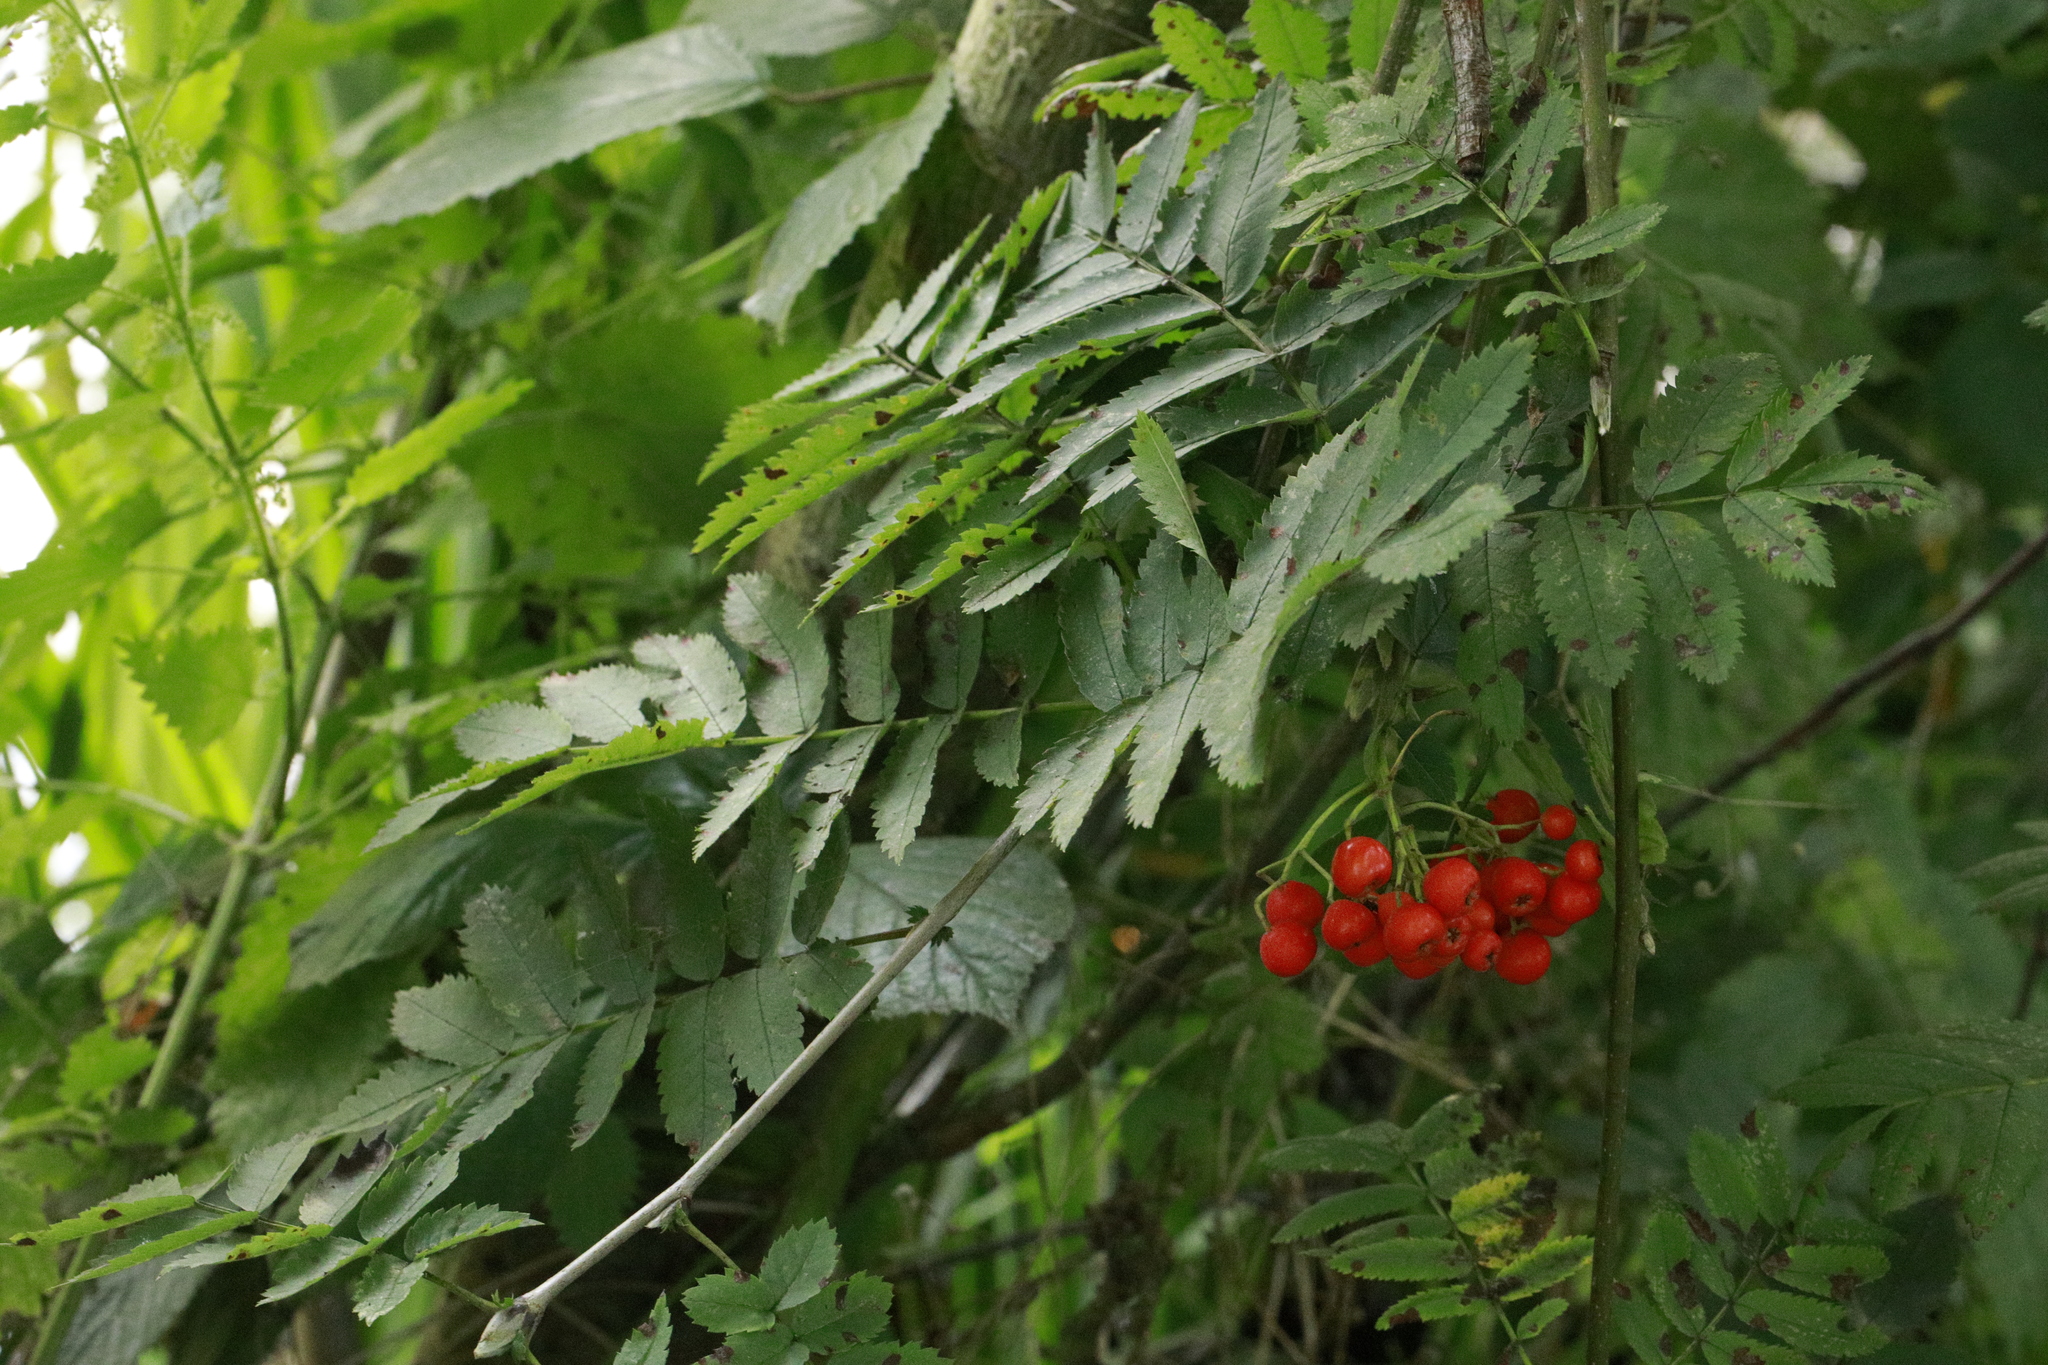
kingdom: Plantae
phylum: Tracheophyta
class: Magnoliopsida
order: Rosales
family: Rosaceae
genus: Sorbus
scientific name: Sorbus aucuparia
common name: Rowan
